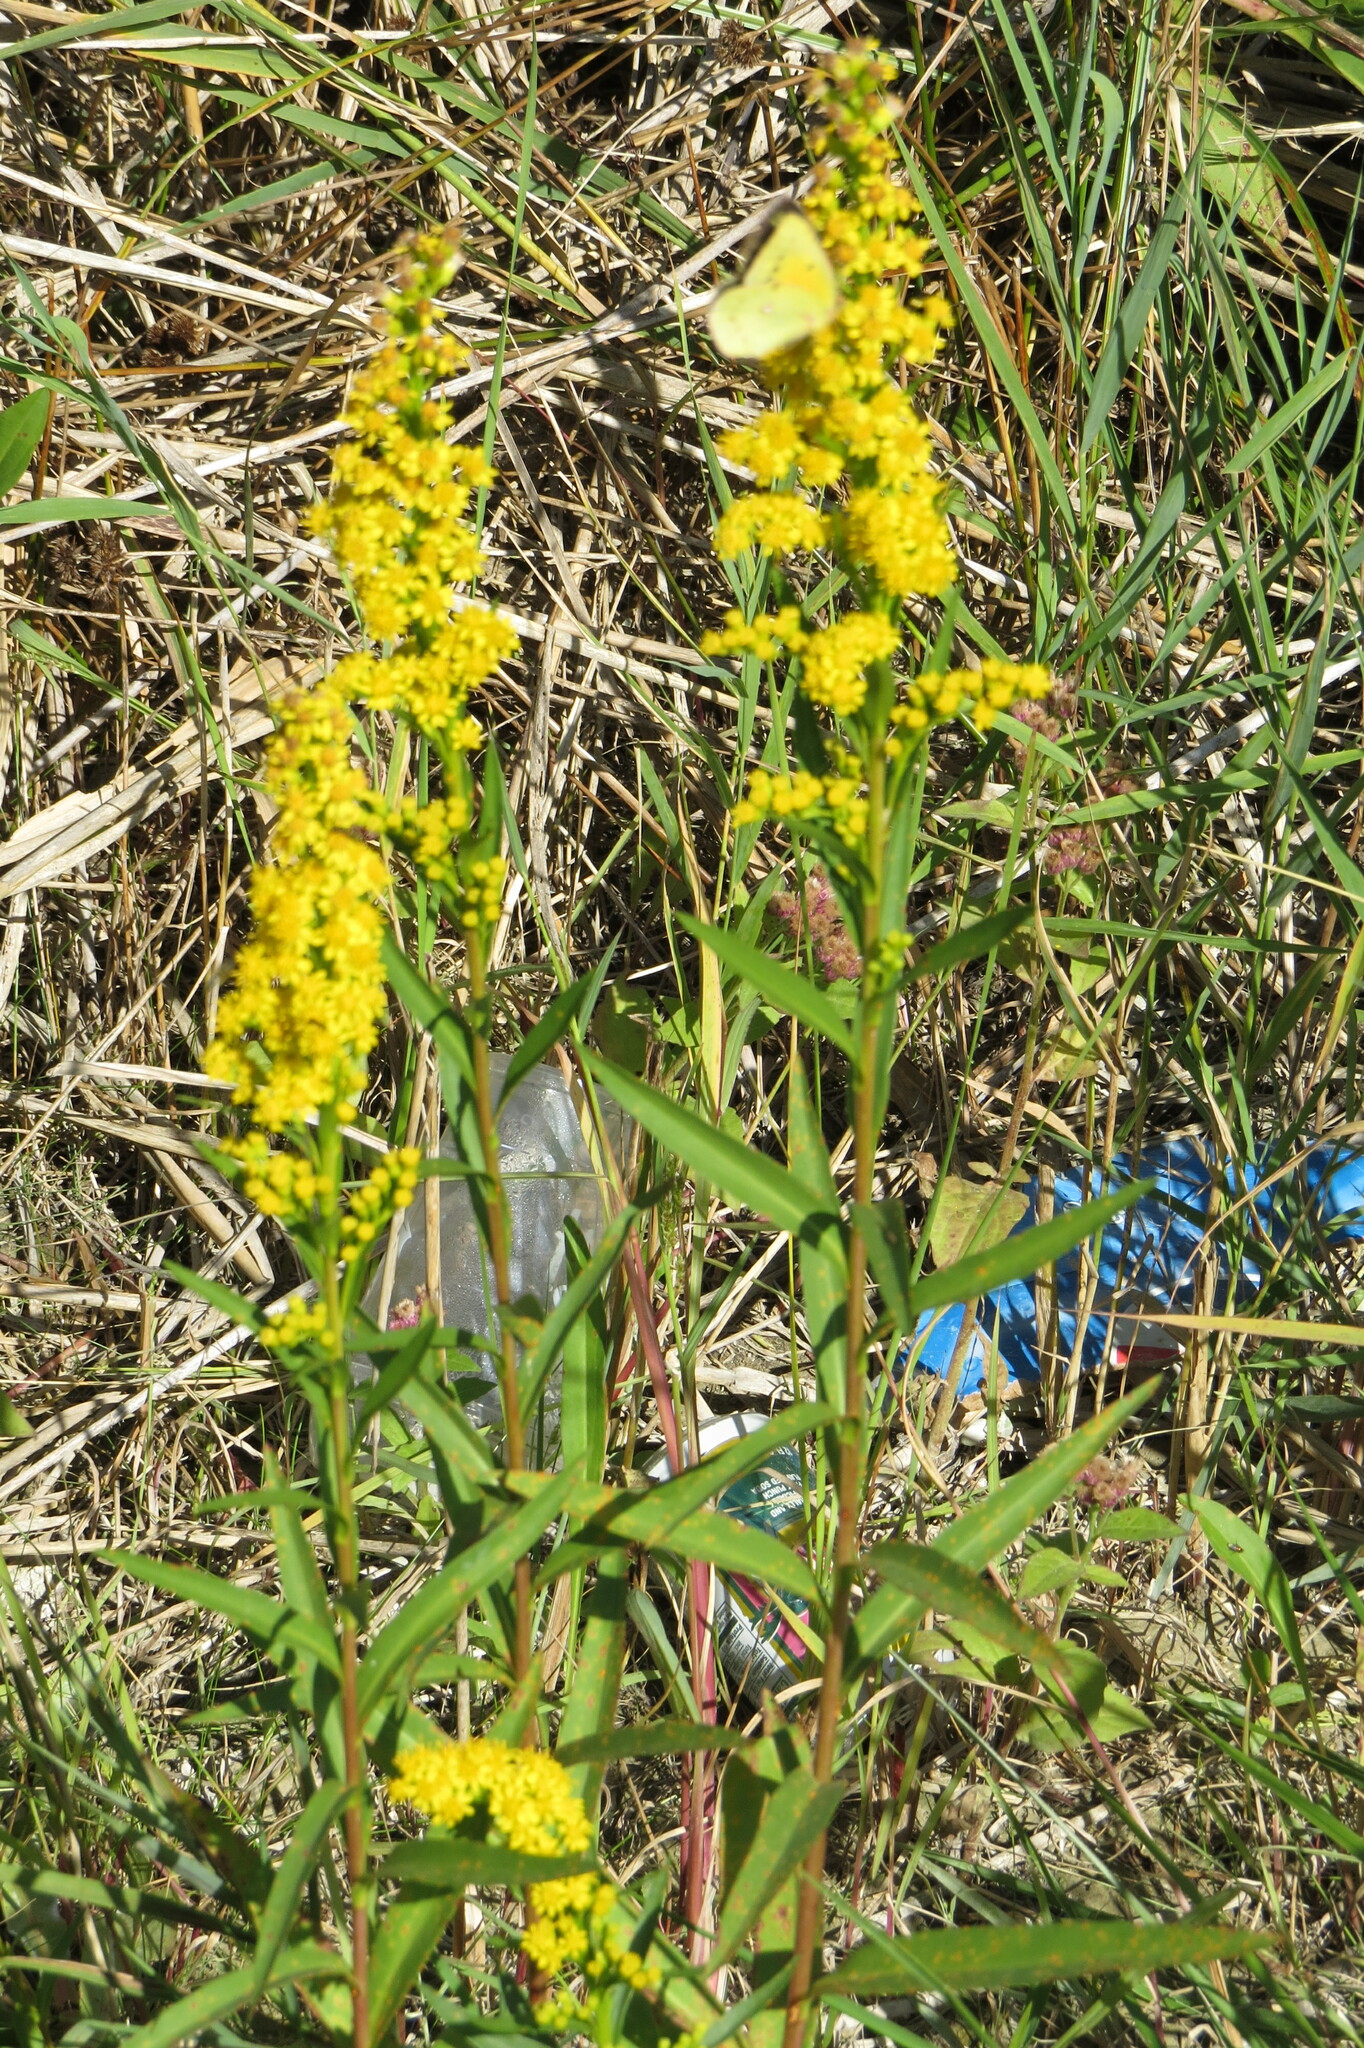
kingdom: Plantae
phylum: Tracheophyta
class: Magnoliopsida
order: Asterales
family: Asteraceae
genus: Solidago
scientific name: Solidago sempervirens
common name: Salt-marsh goldenrod
